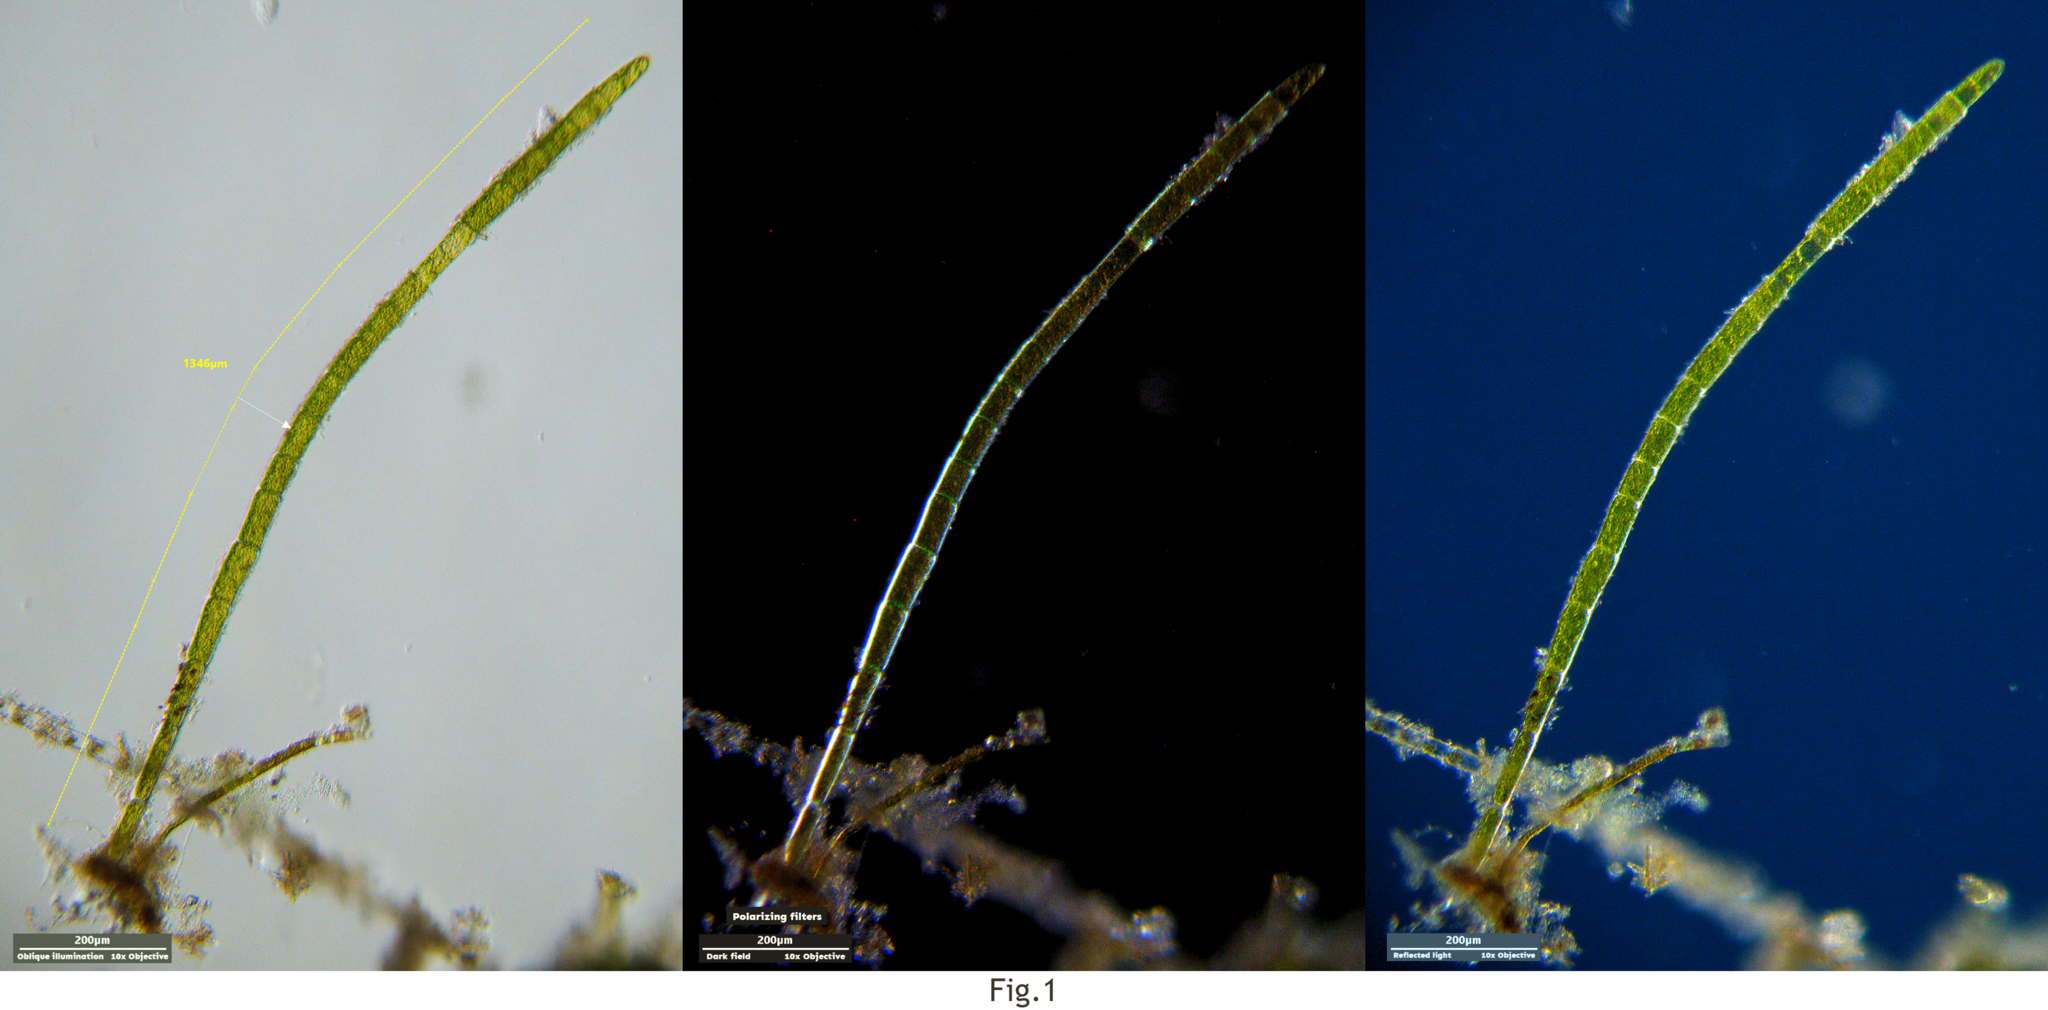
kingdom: Plantae
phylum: Chlorophyta
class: Chlorophyceae
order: Oedogoniales
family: Oedogoniaceae
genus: Oedogonium
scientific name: Oedogonium
